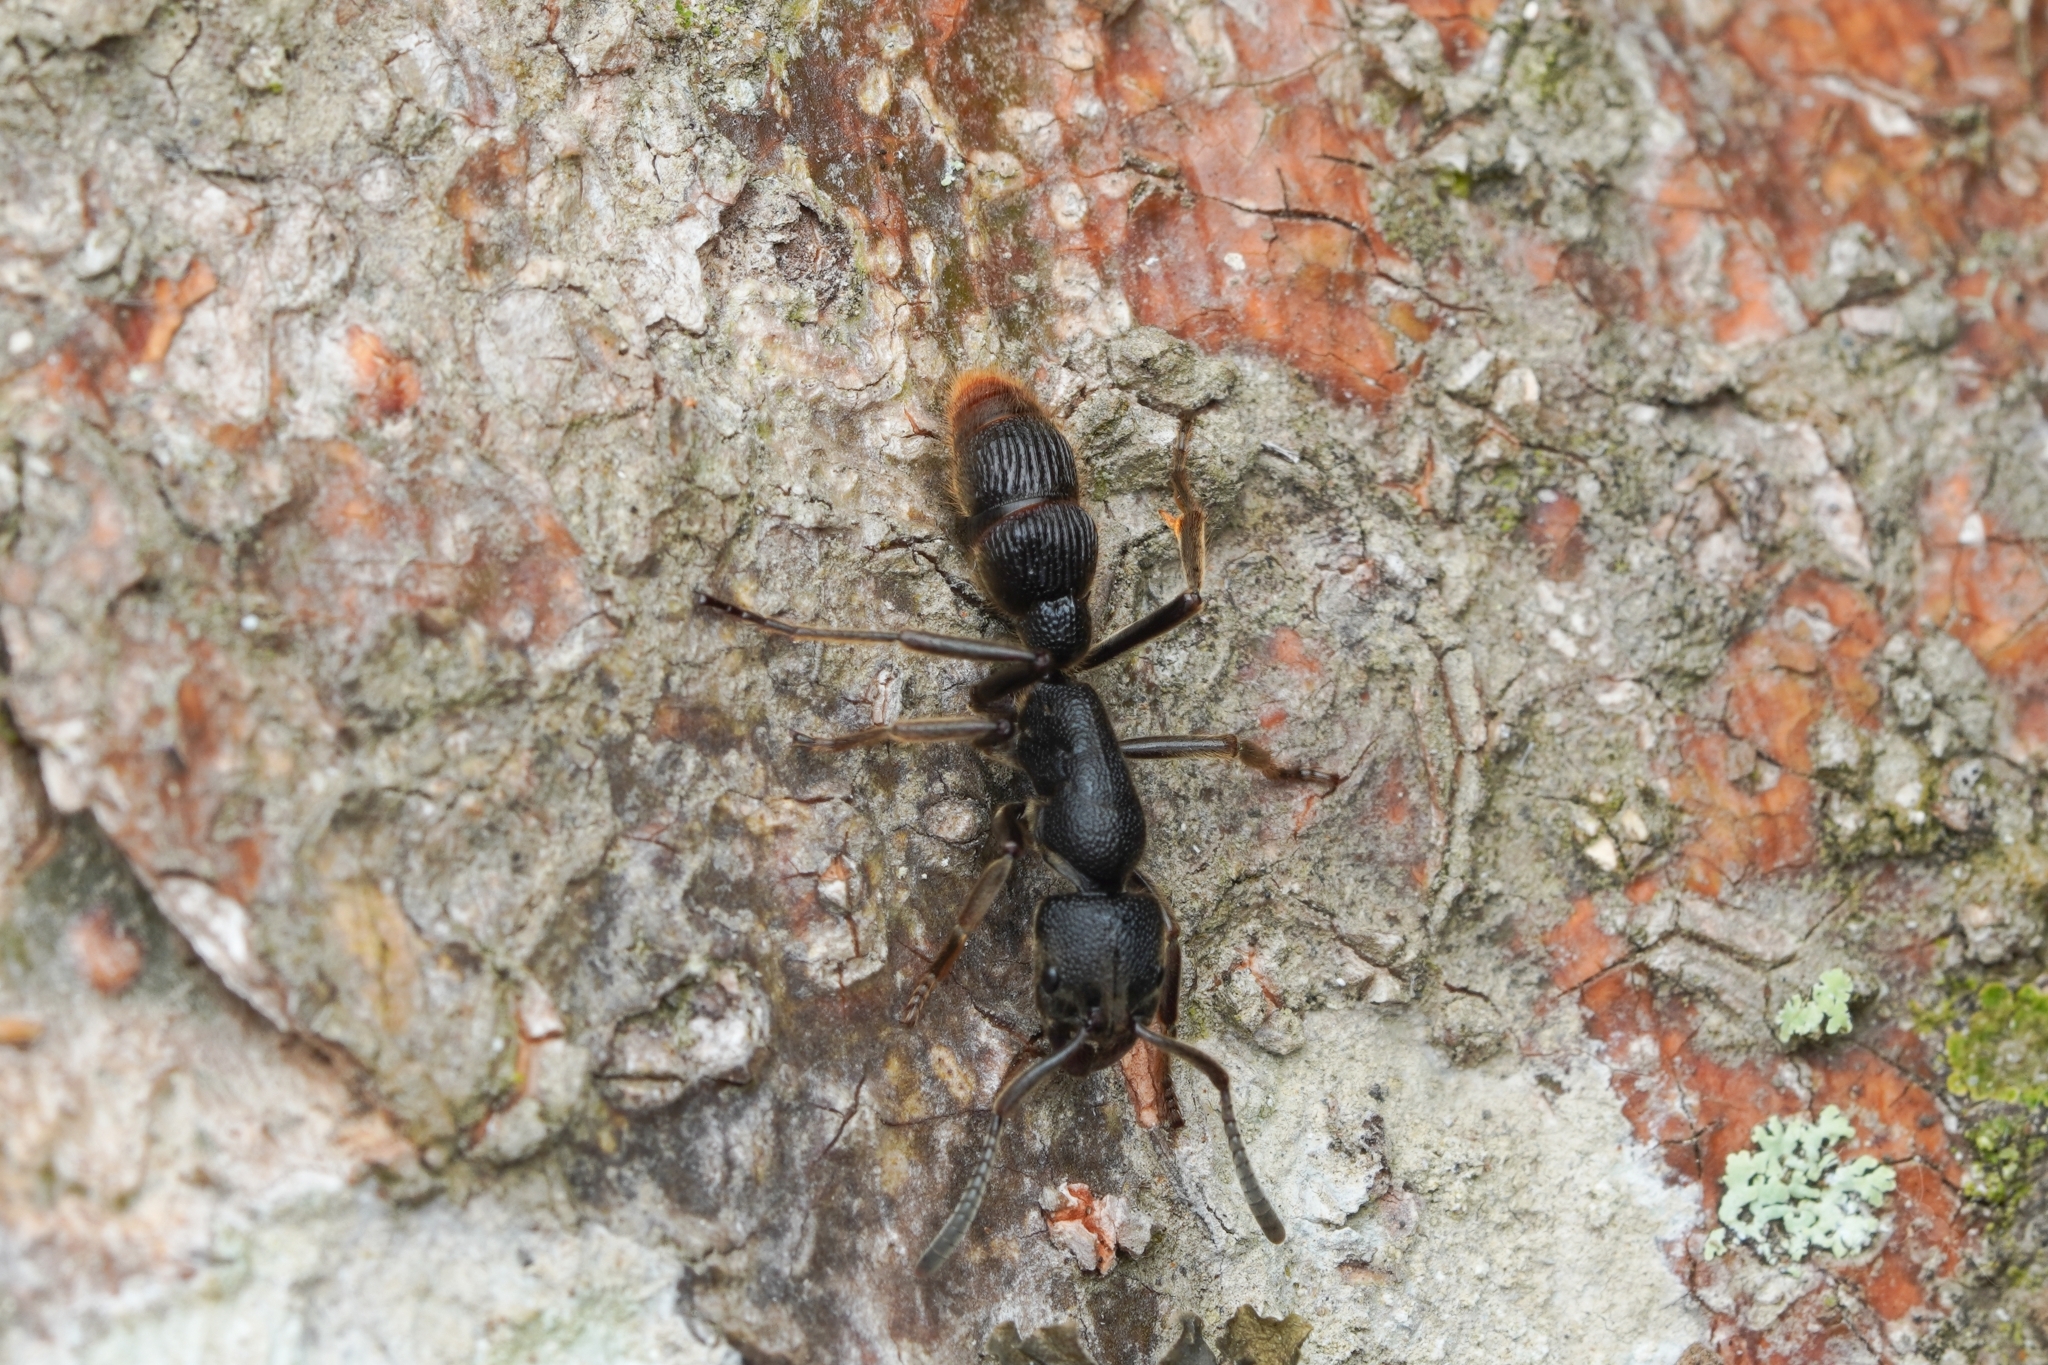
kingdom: Animalia
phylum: Arthropoda
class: Insecta
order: Hymenoptera
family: Formicidae
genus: Pseudoneoponera
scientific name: Pseudoneoponera
